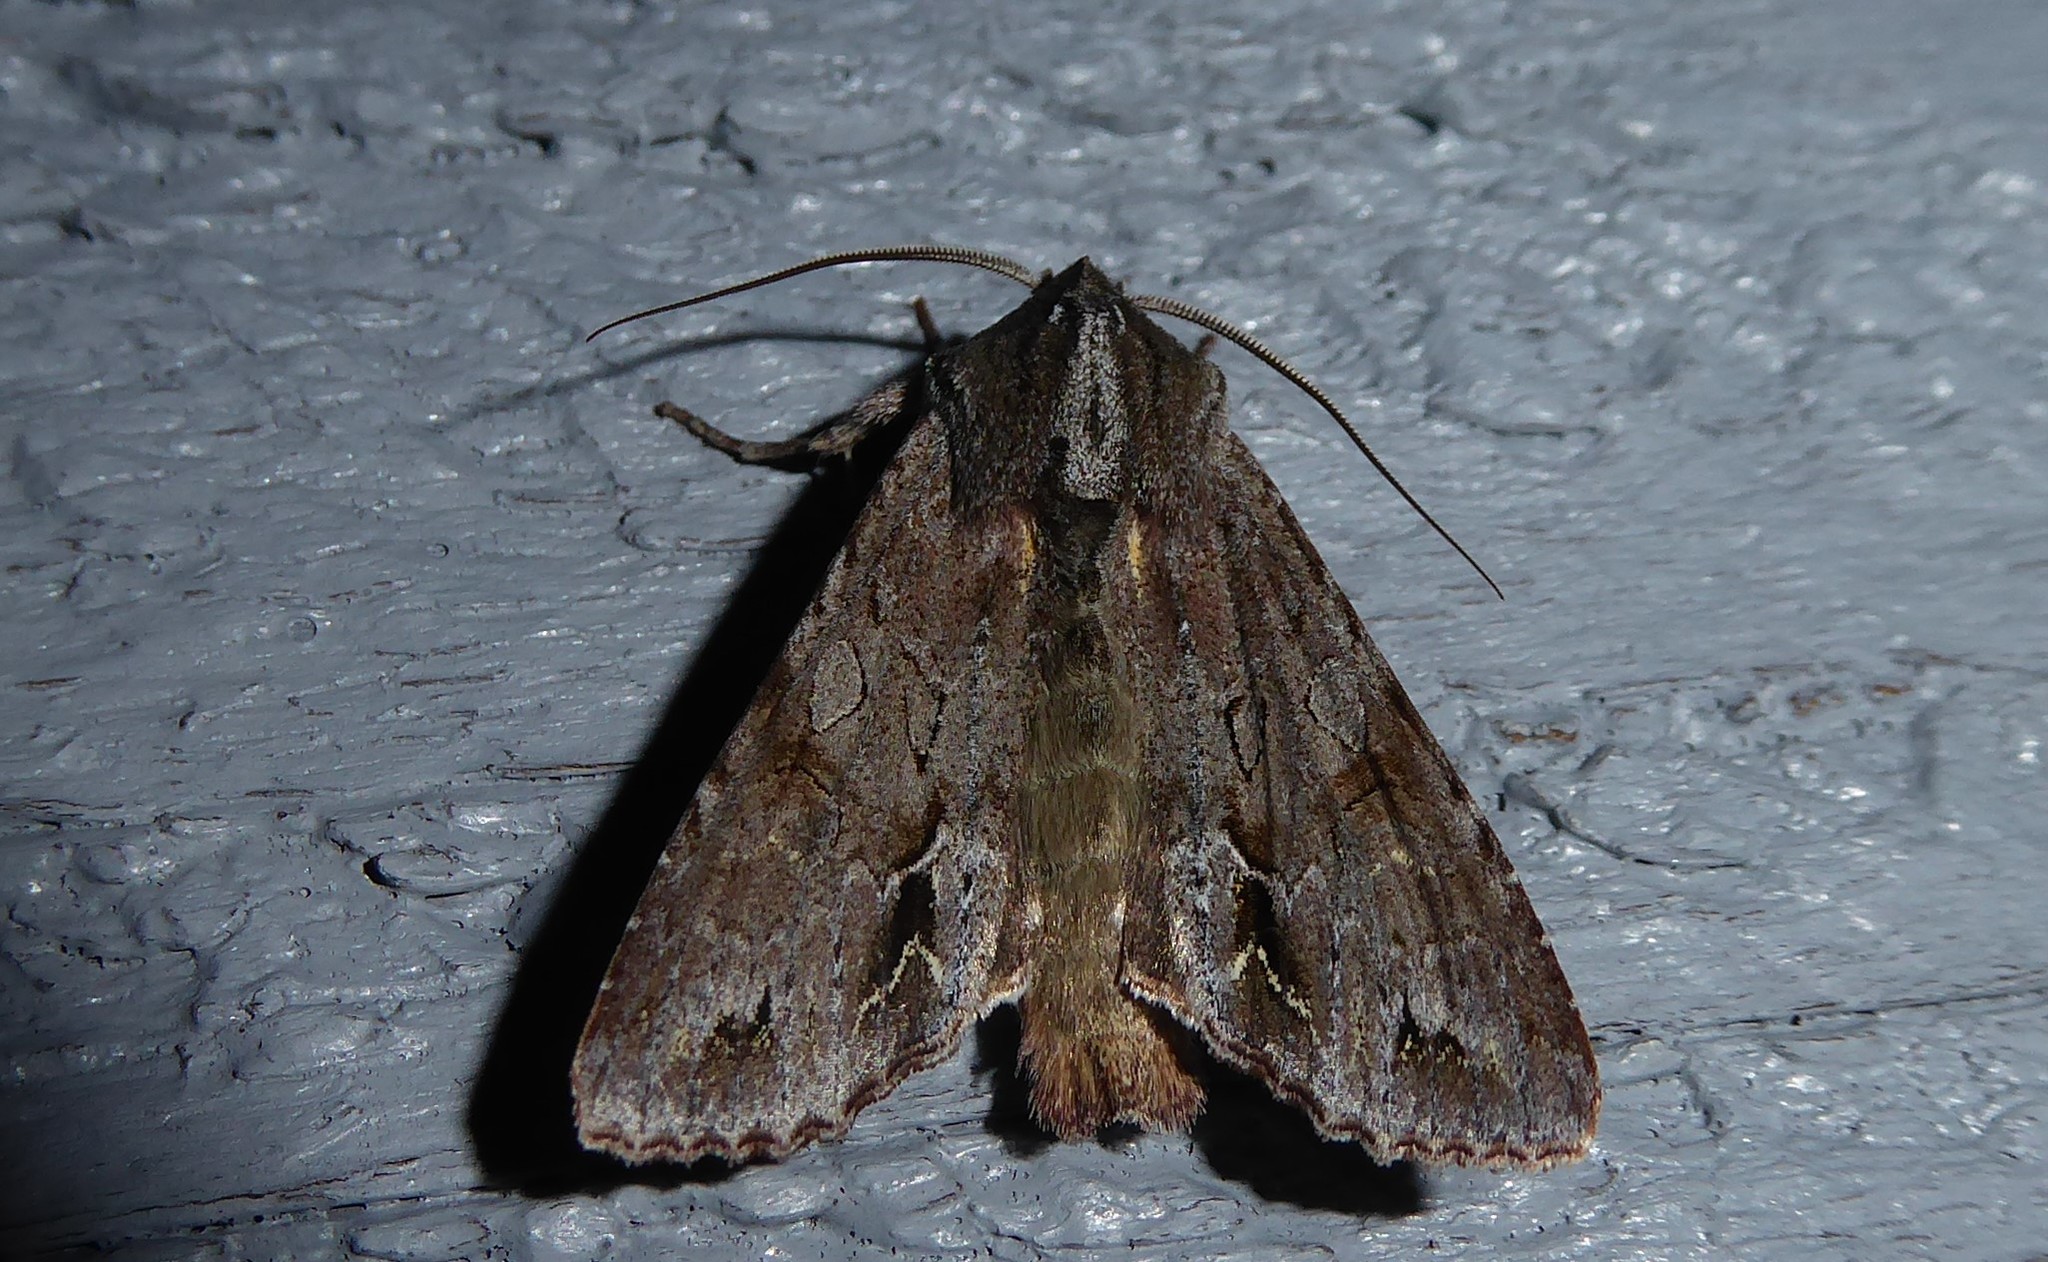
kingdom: Animalia
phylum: Arthropoda
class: Insecta
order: Lepidoptera
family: Noctuidae
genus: Ichneutica
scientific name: Ichneutica
